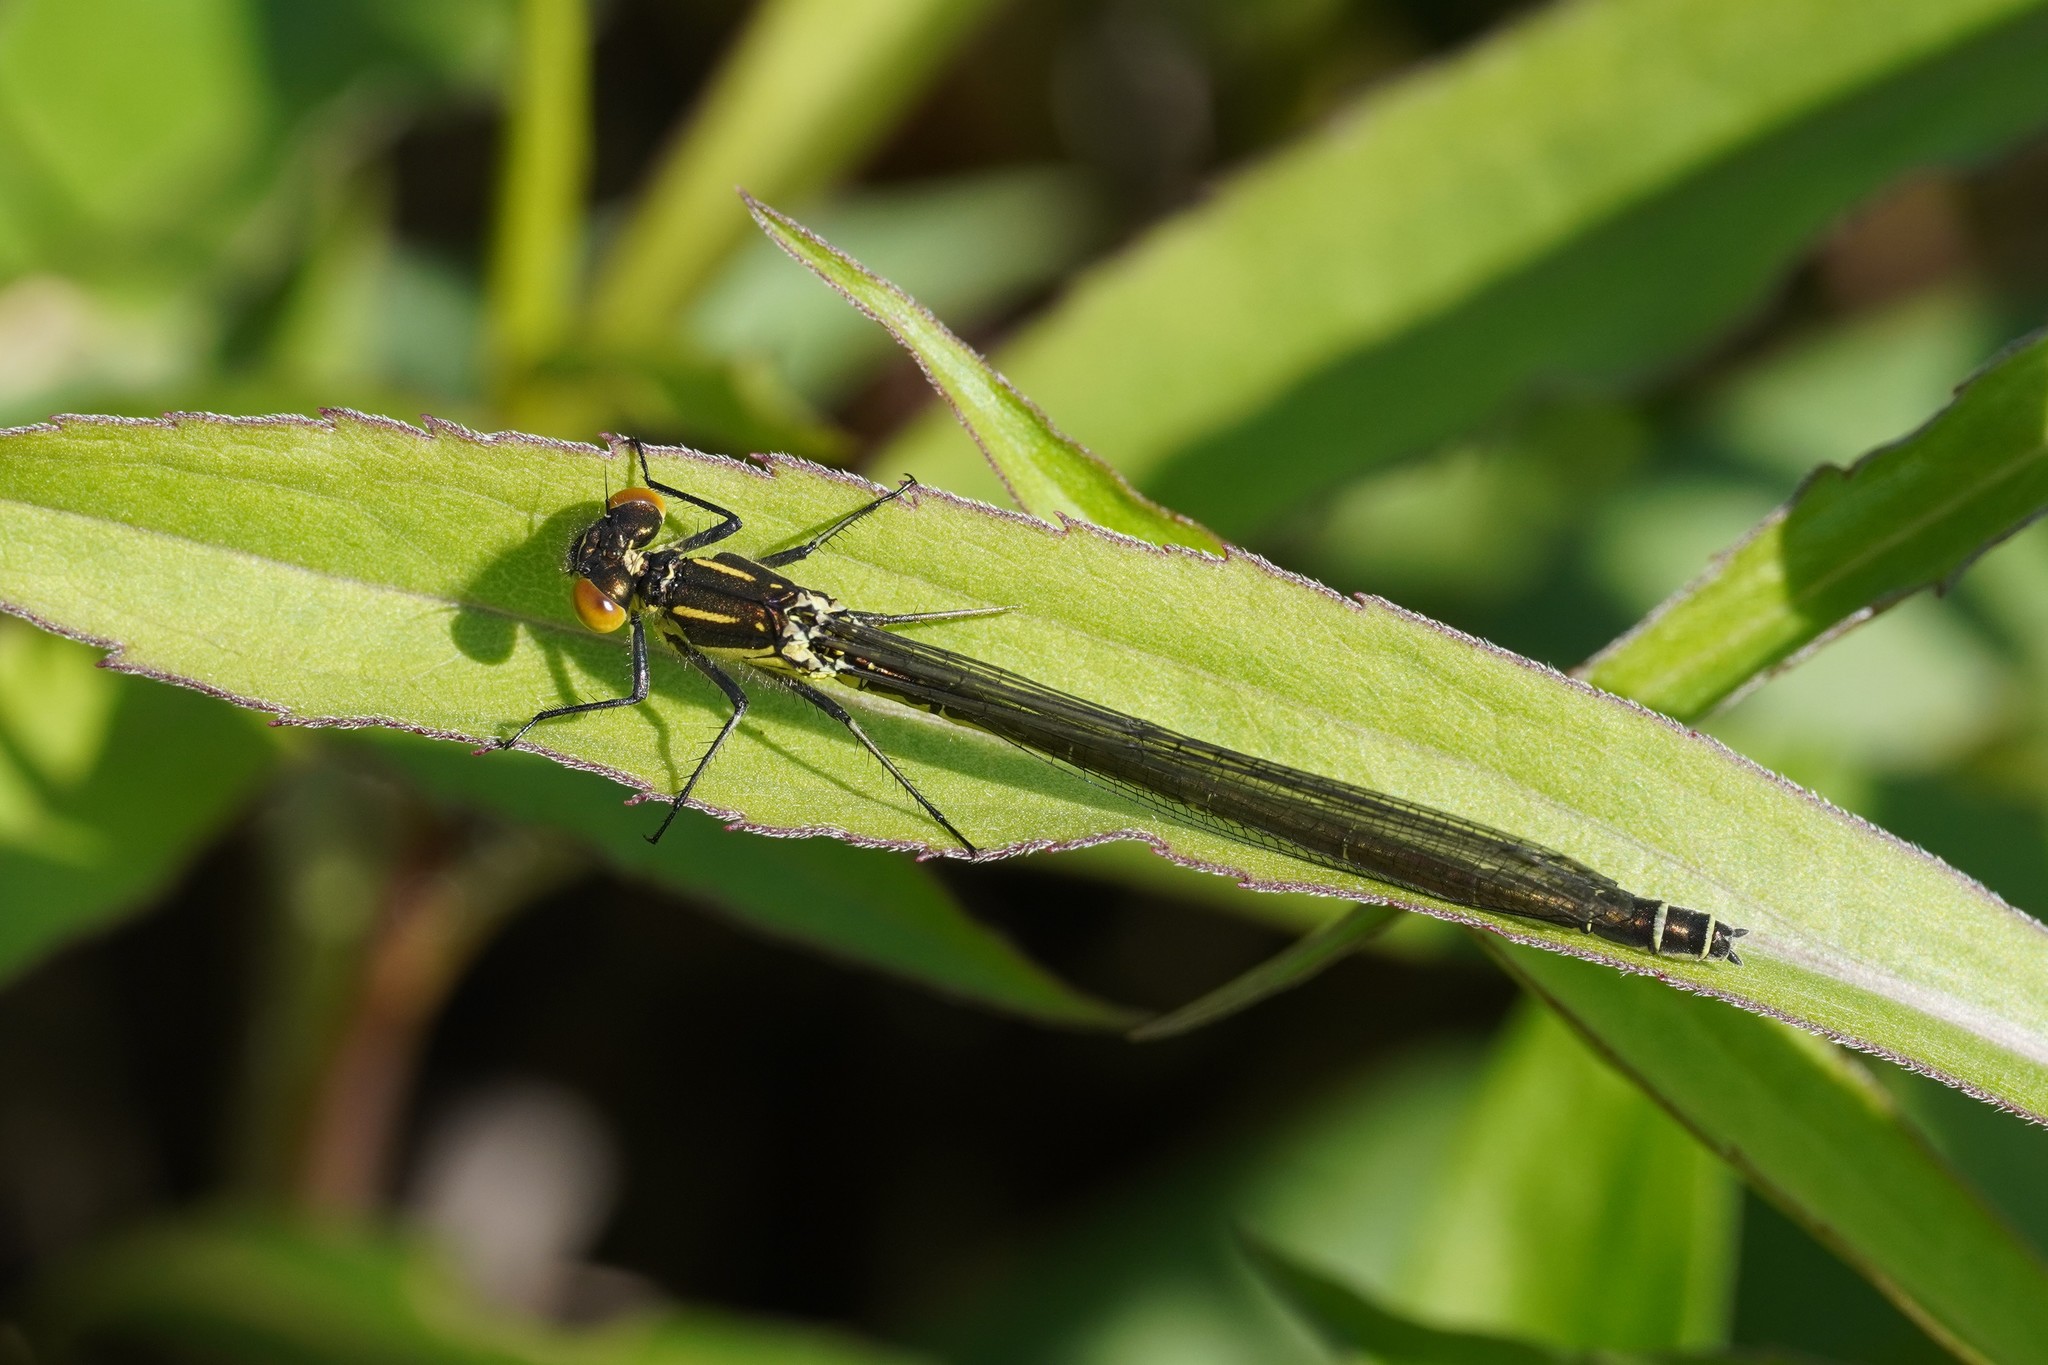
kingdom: Animalia
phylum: Arthropoda
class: Insecta
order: Odonata
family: Coenagrionidae
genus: Erythromma
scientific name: Erythromma najas
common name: Red-eyed damselfly
